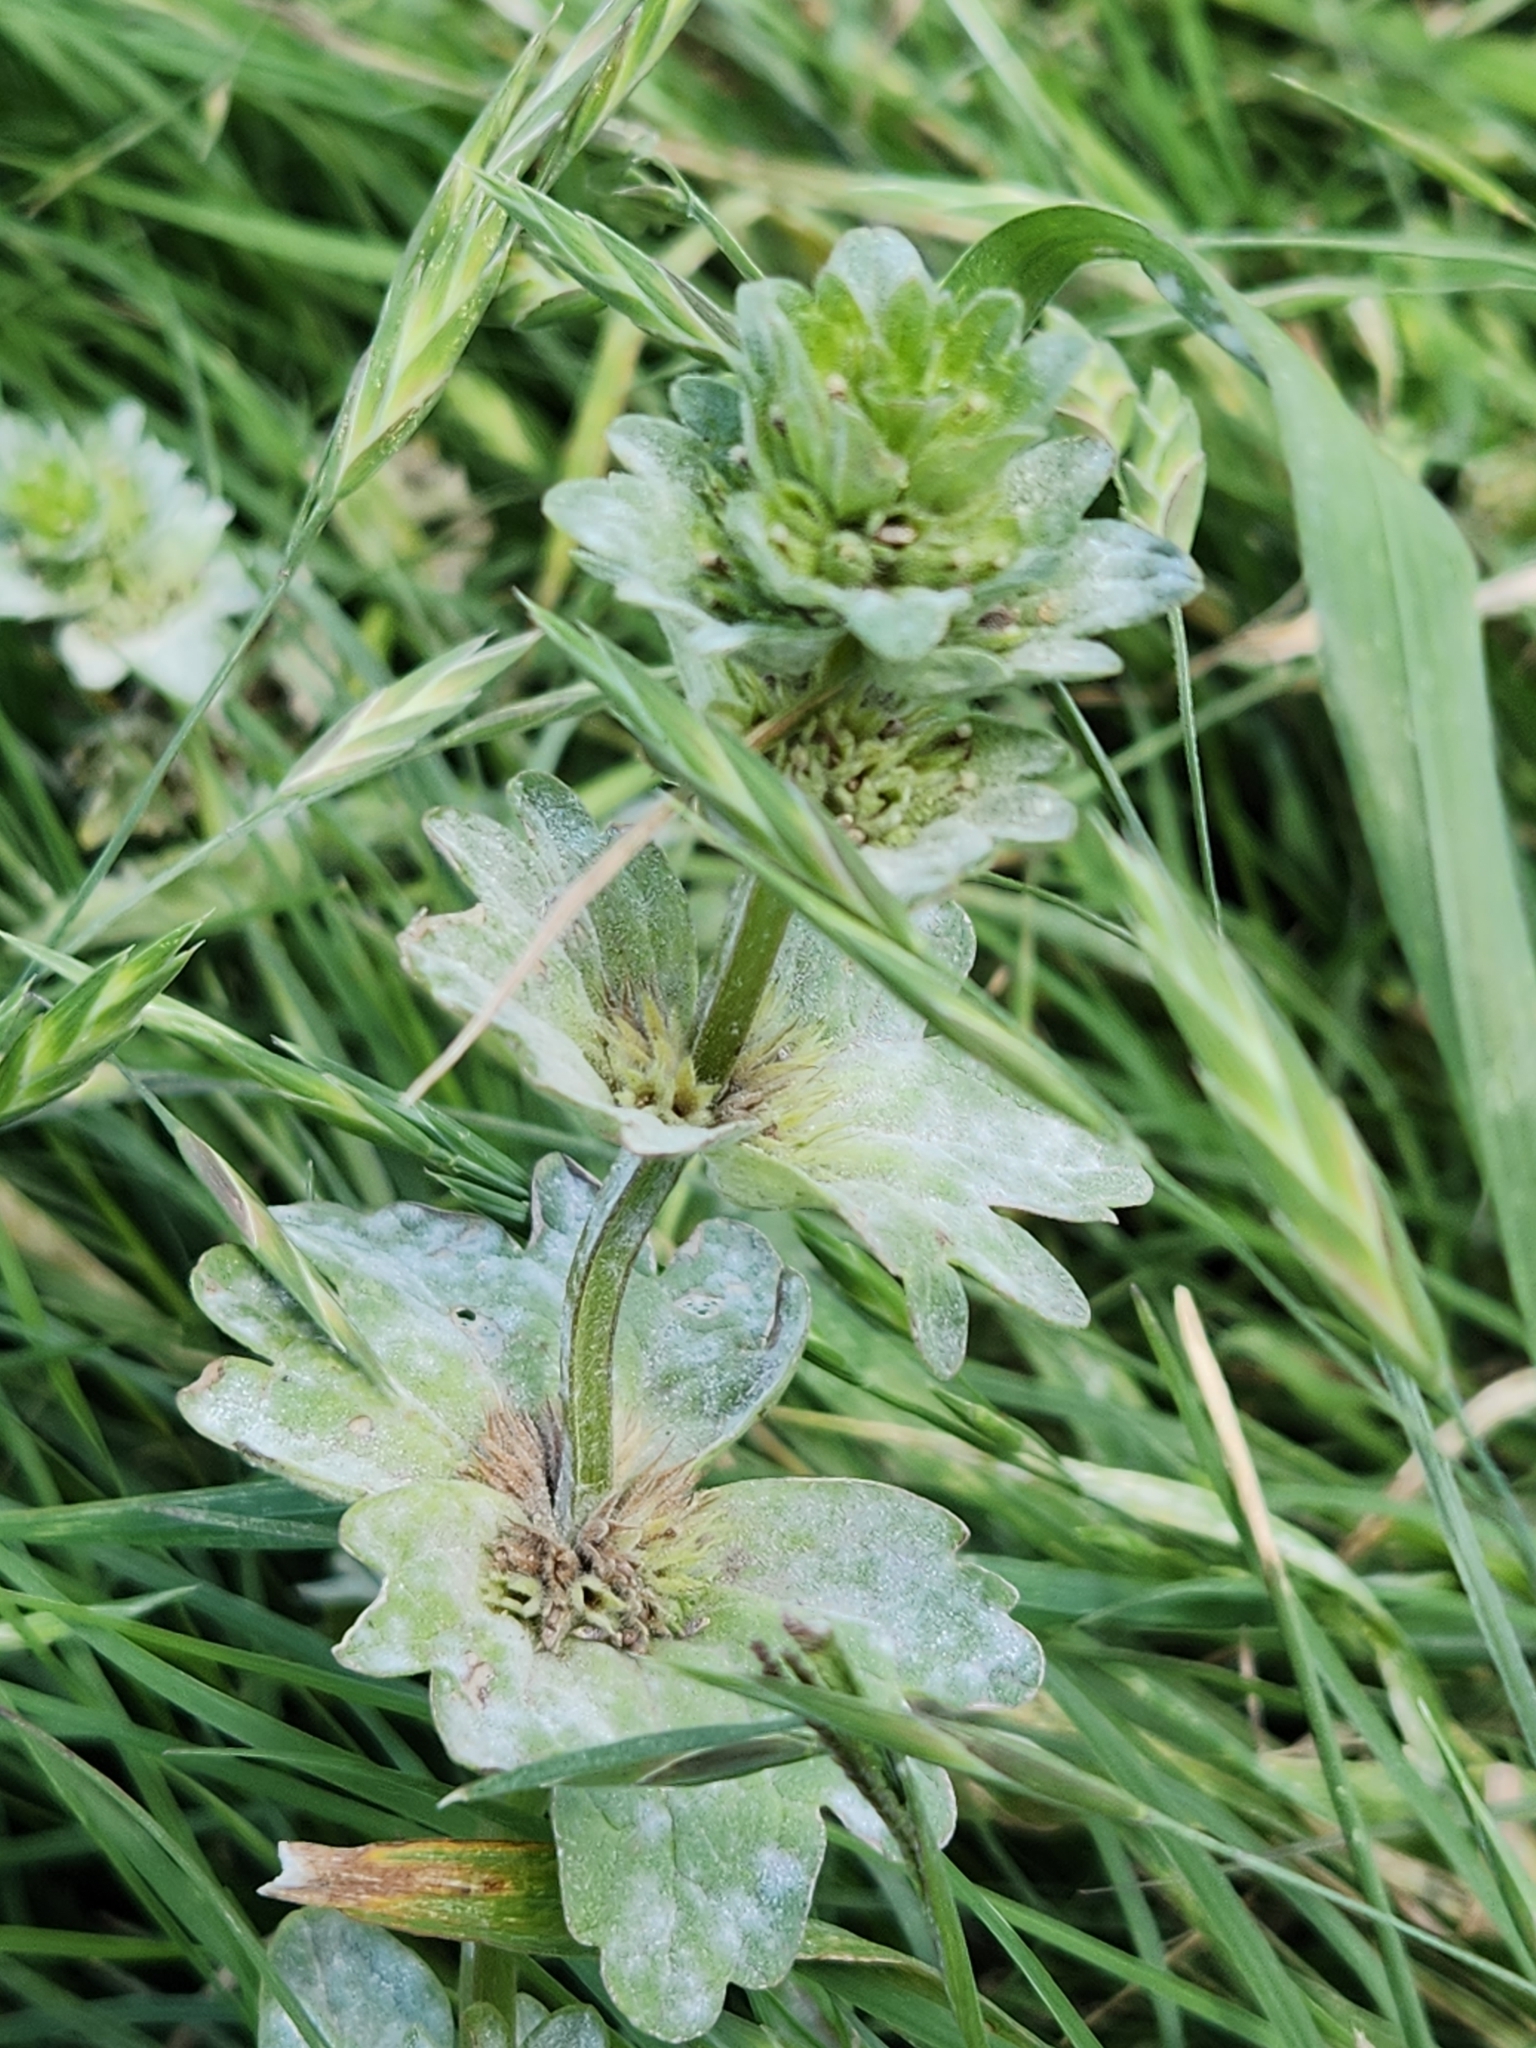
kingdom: Plantae
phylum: Tracheophyta
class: Magnoliopsida
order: Lamiales
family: Lamiaceae
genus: Lamium
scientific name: Lamium amplexicaule
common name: Henbit dead-nettle
